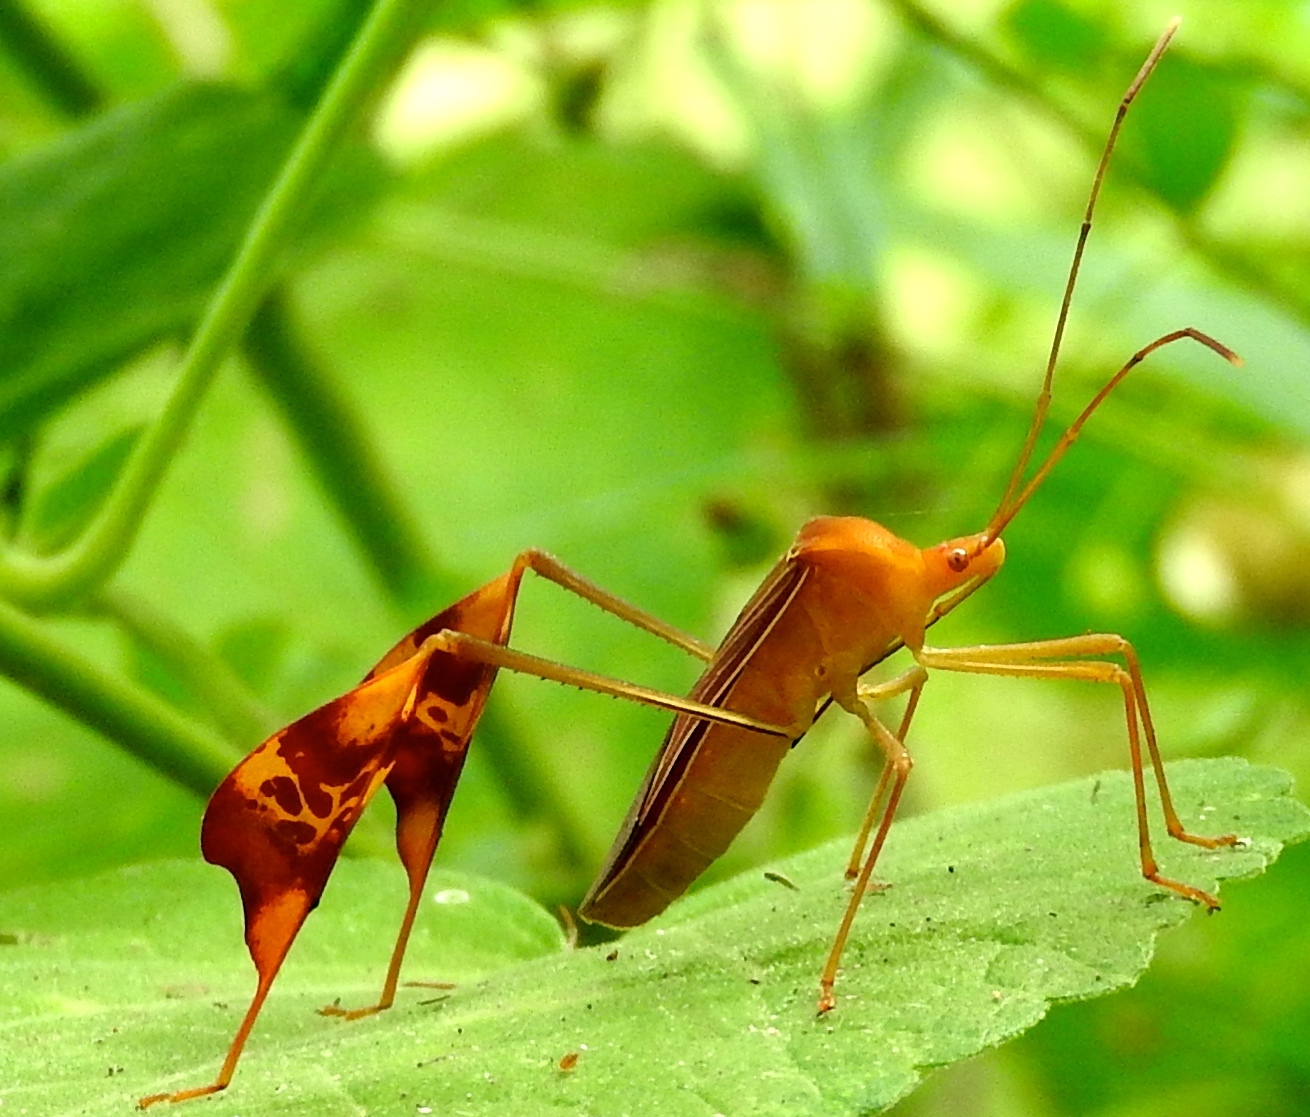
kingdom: Animalia
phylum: Arthropoda
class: Insecta
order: Hemiptera
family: Coreidae
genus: Bitta
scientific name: Bitta
